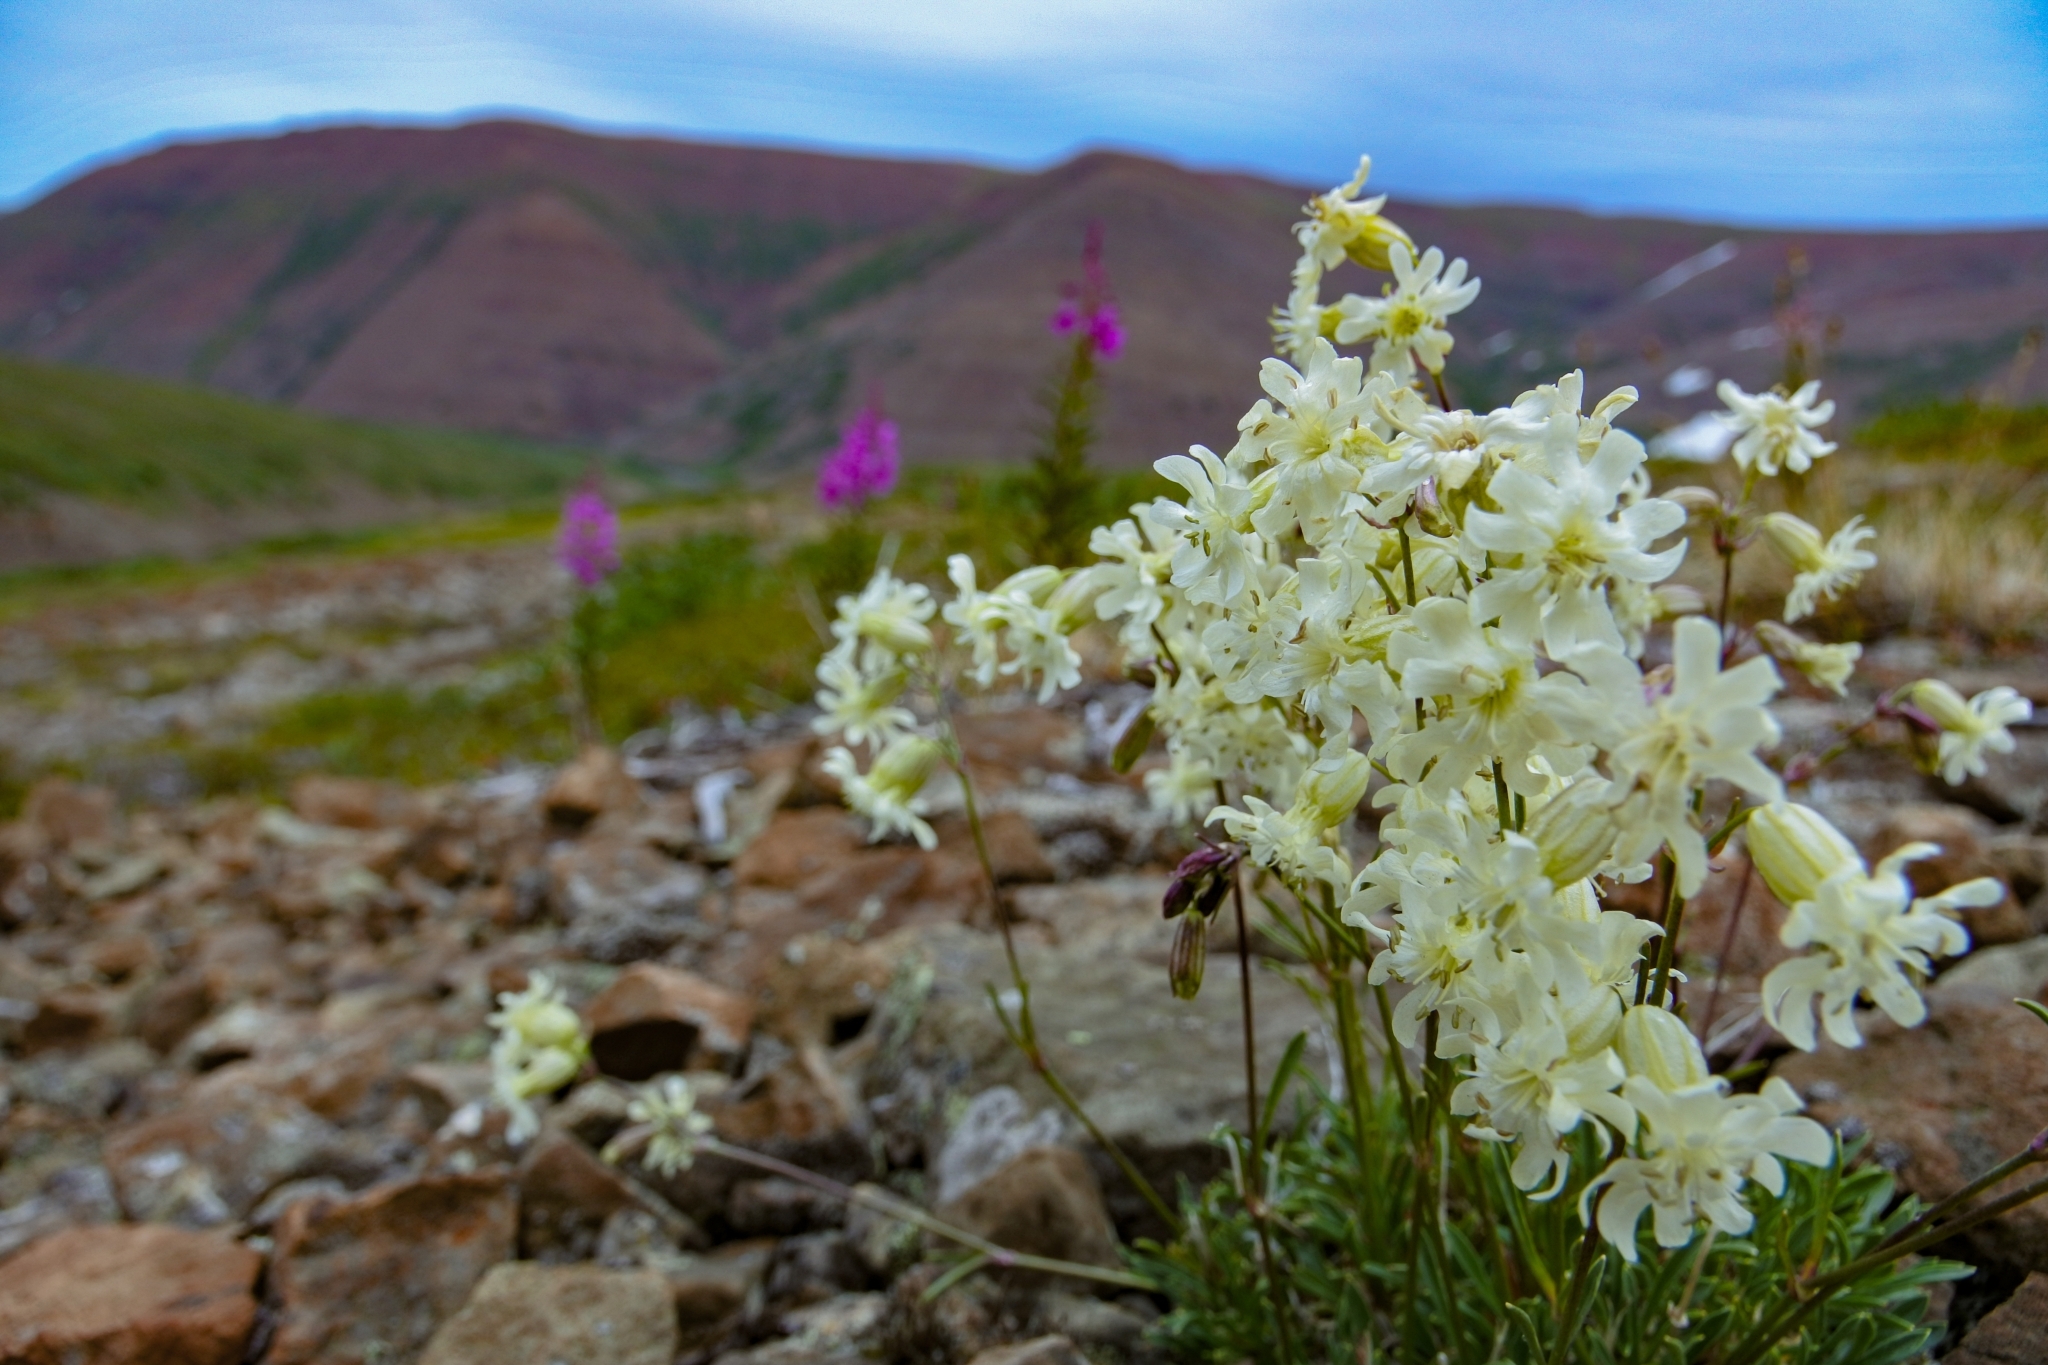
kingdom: Plantae
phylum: Tracheophyta
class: Magnoliopsida
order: Caryophyllales
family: Caryophyllaceae
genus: Silene
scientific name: Silene chamarensis
